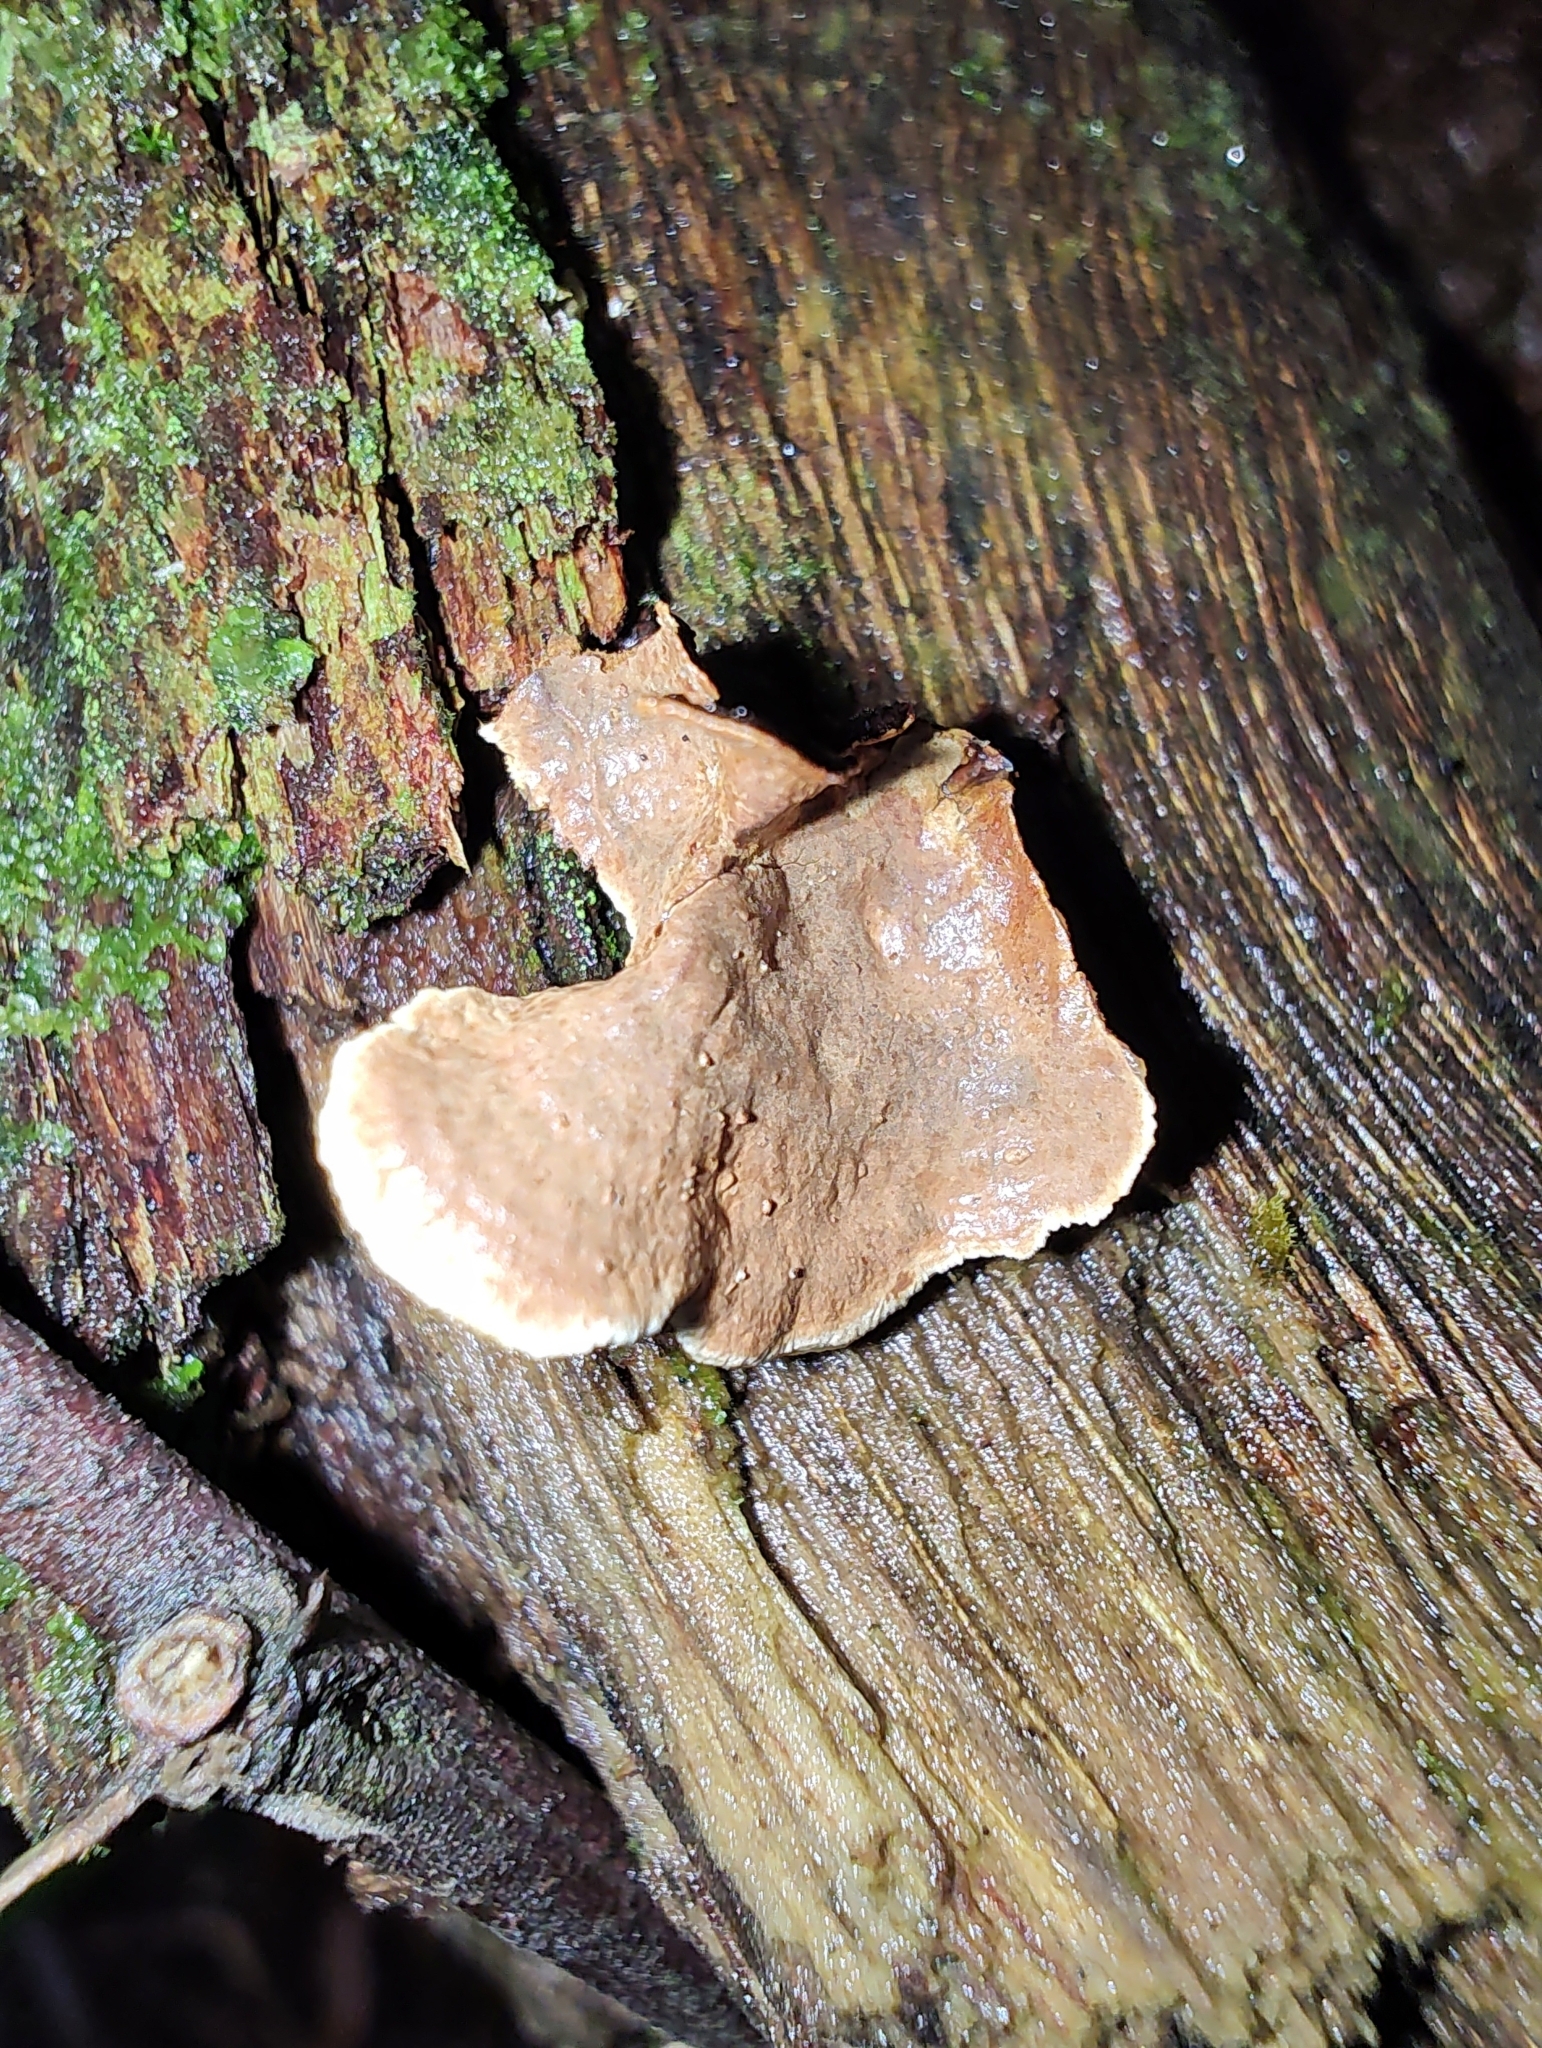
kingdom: Fungi
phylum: Basidiomycota
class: Agaricomycetes
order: Hymenochaetales
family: Hymenochaetaceae
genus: Hymenochaete
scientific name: Hymenochaete microcycla
